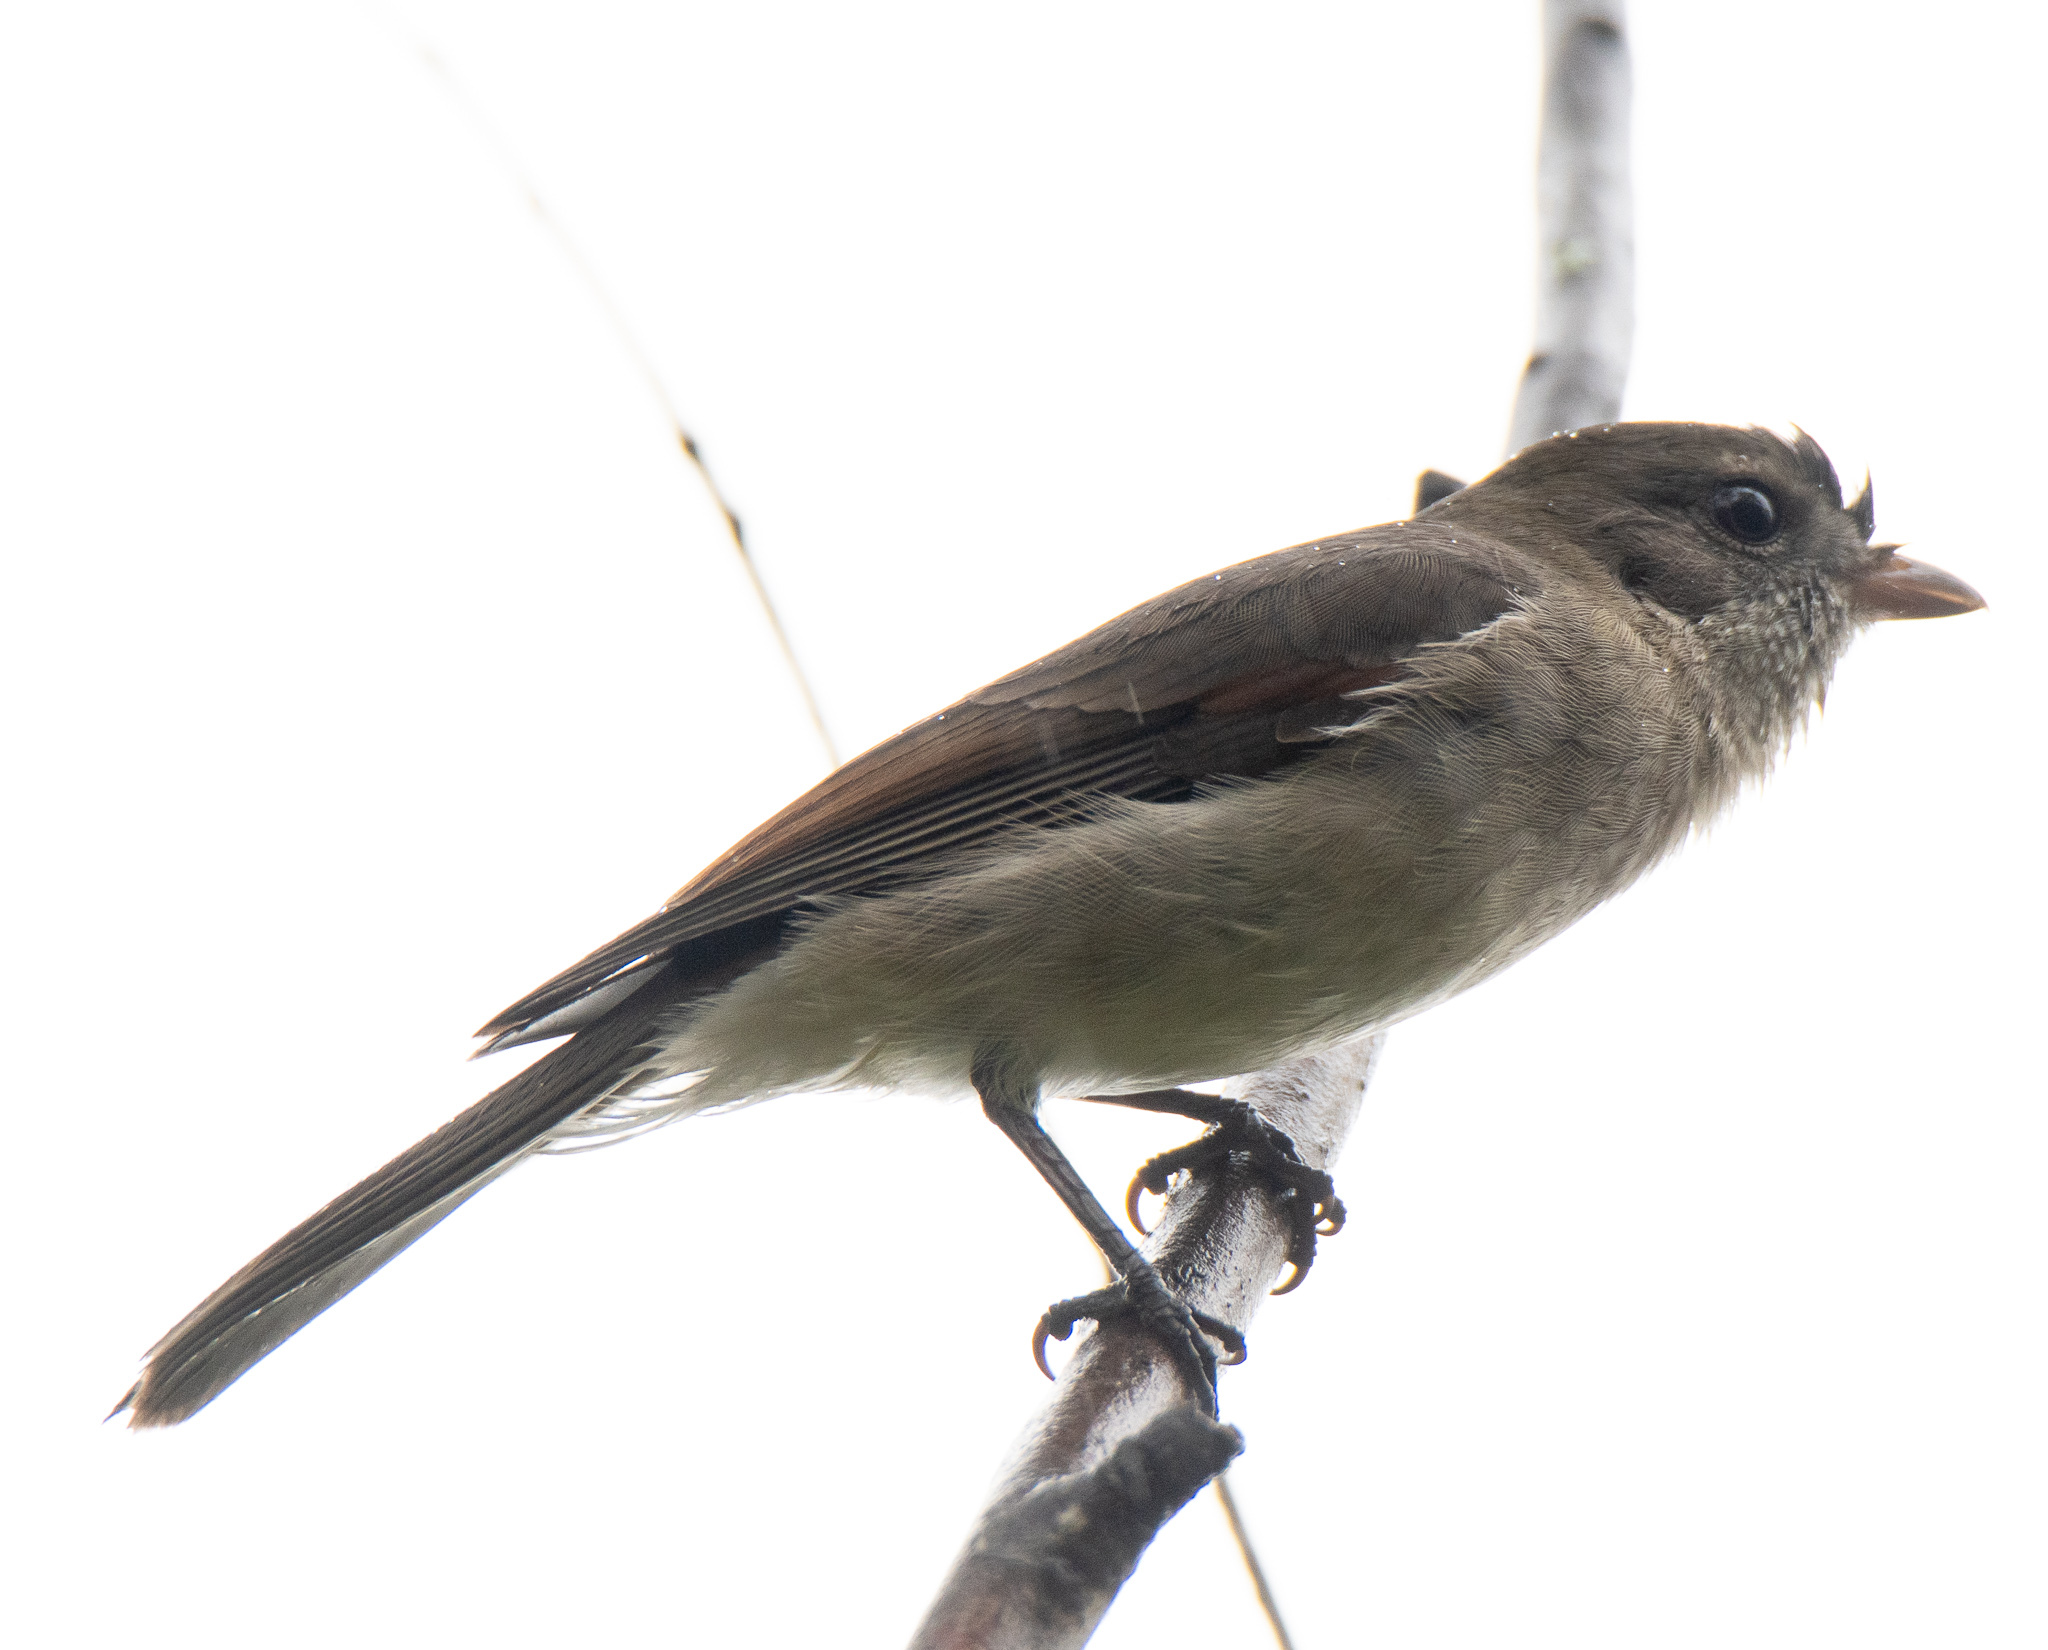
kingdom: Animalia
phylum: Chordata
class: Aves
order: Passeriformes
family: Pachycephalidae
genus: Pachycephala
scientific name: Pachycephala pectoralis
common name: Australian golden whistler
